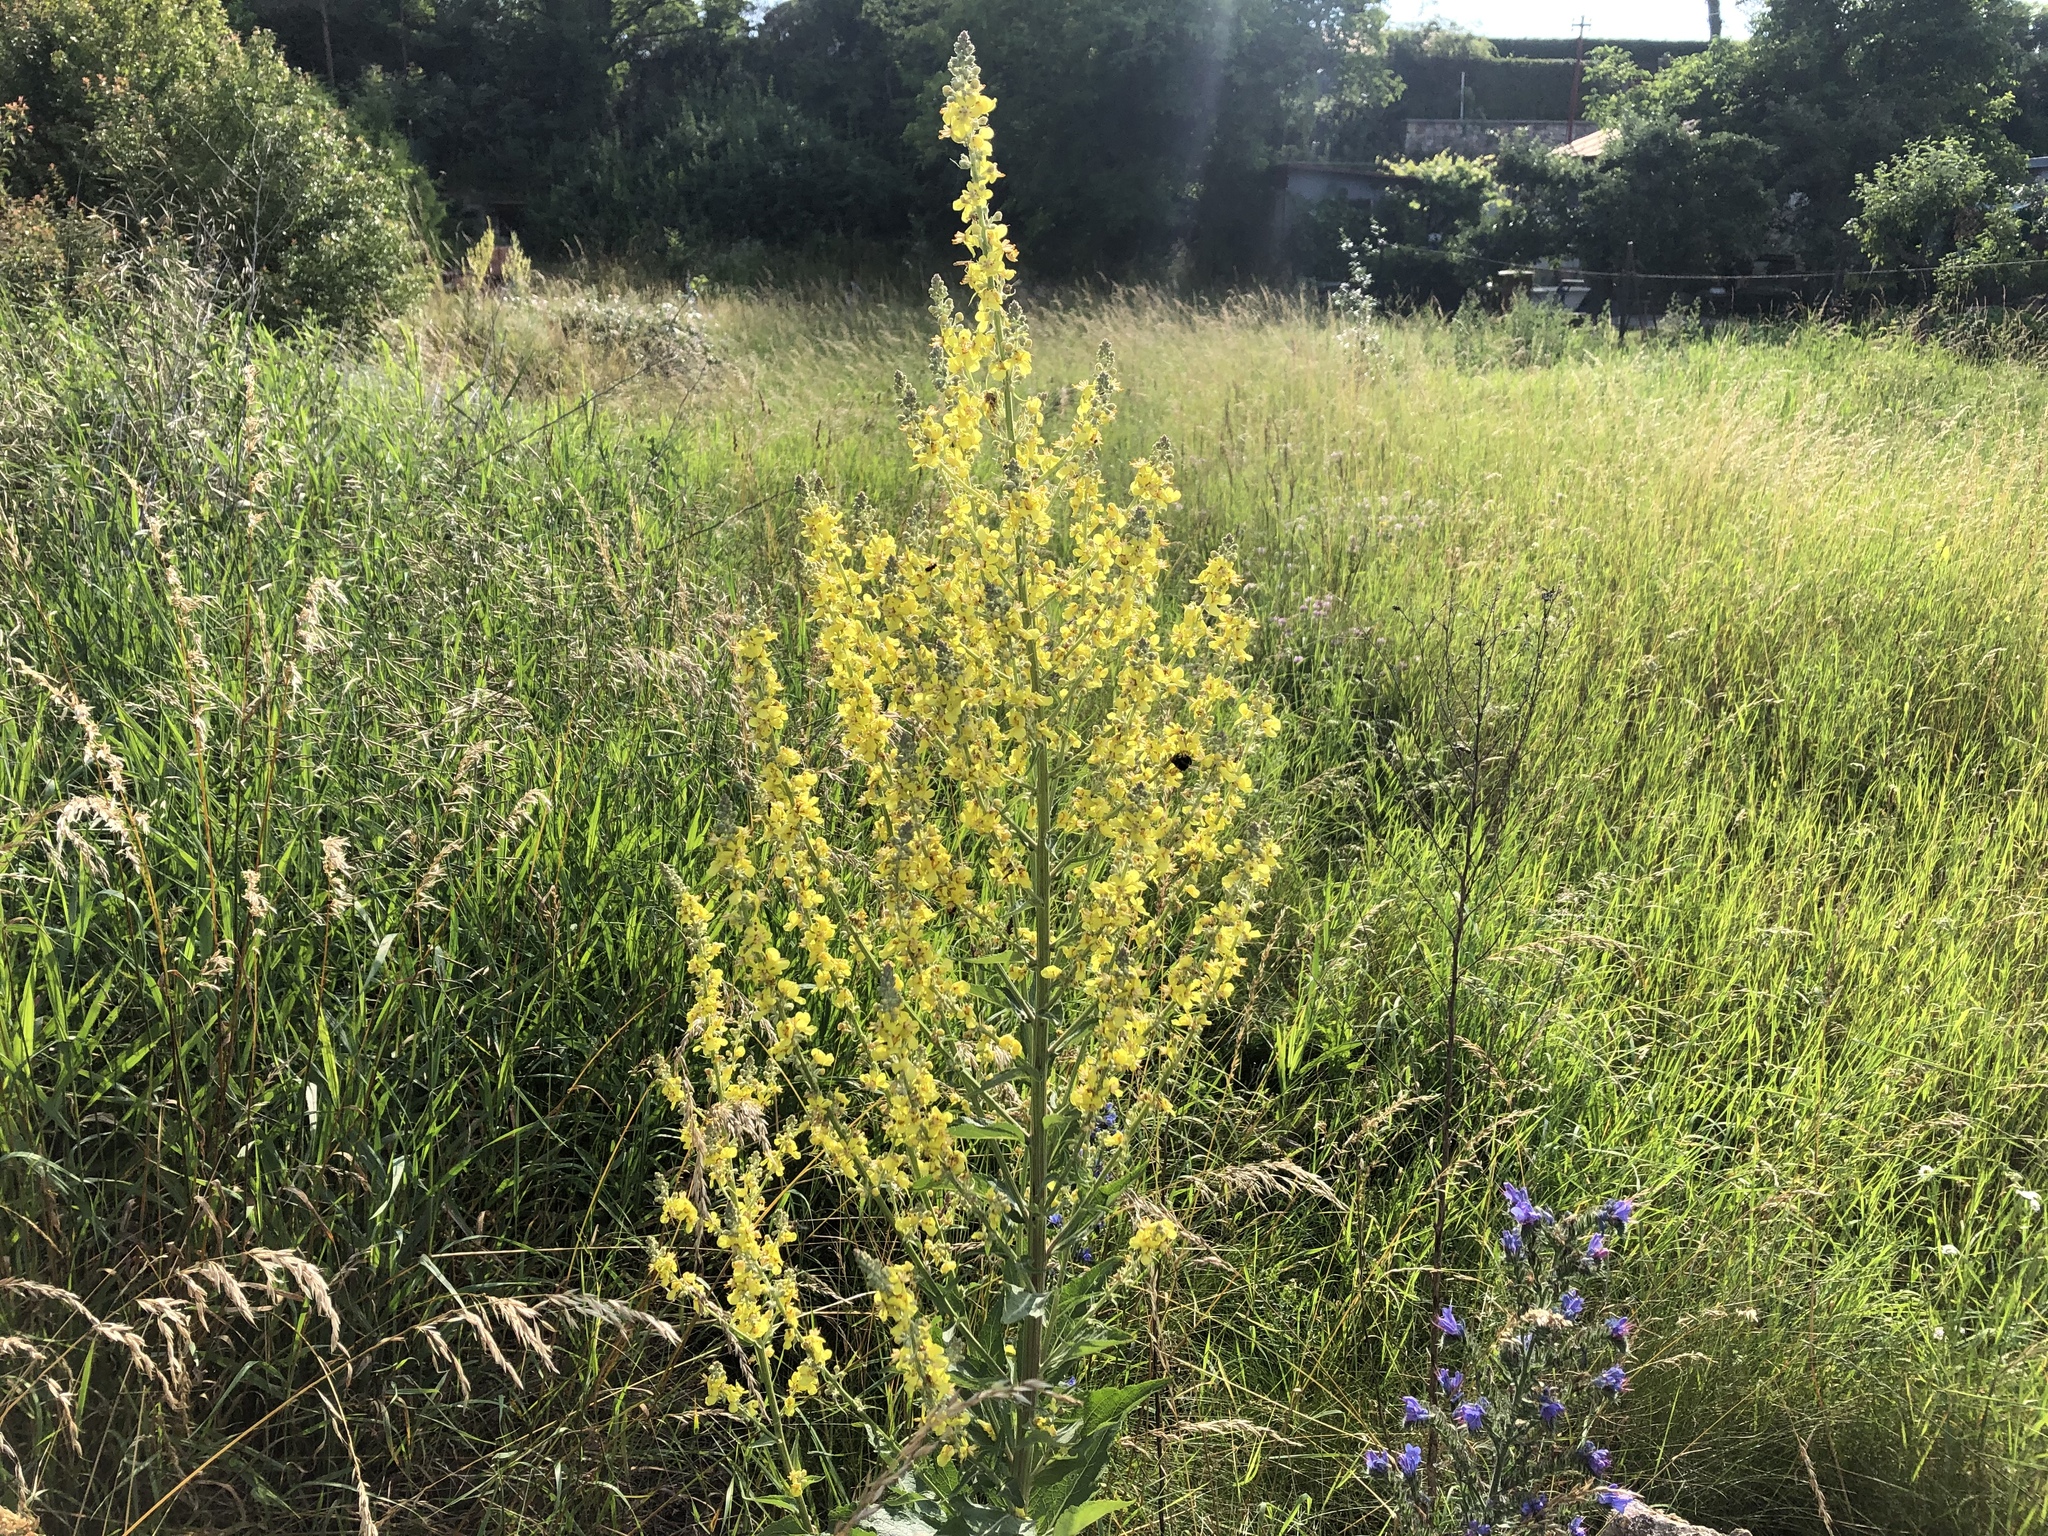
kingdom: Plantae
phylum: Tracheophyta
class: Magnoliopsida
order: Lamiales
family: Scrophulariaceae
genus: Verbascum
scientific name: Verbascum lychnitis
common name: White mullein
